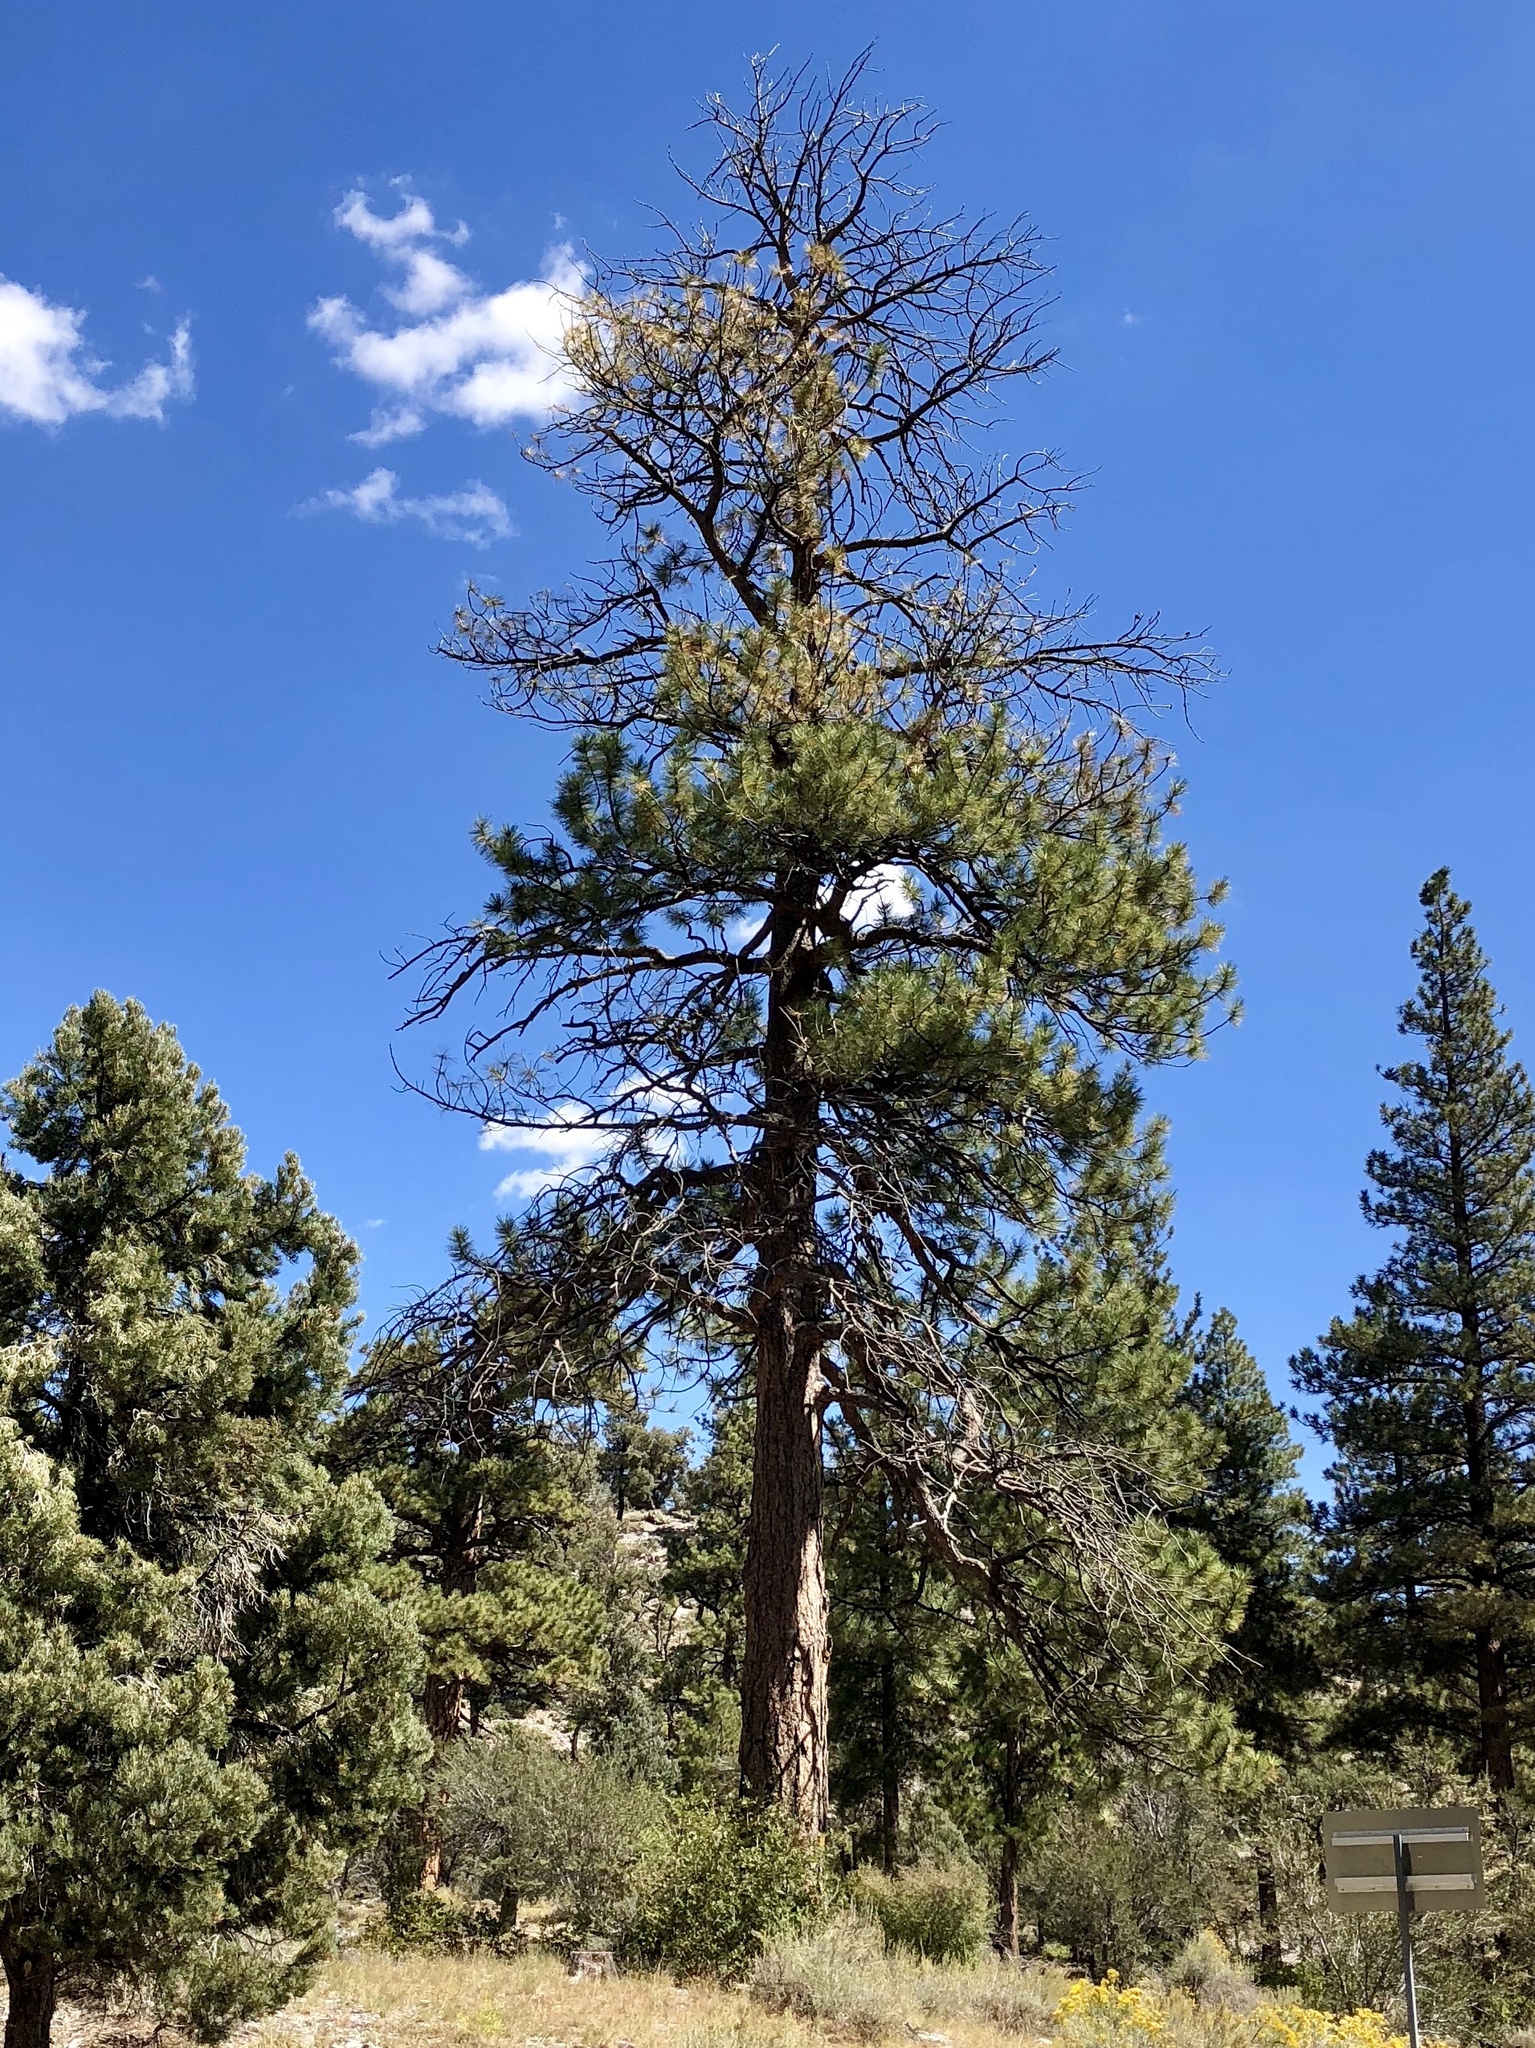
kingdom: Plantae
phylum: Tracheophyta
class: Pinopsida
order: Pinales
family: Pinaceae
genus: Pinus
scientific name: Pinus ponderosa
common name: Western yellow-pine
